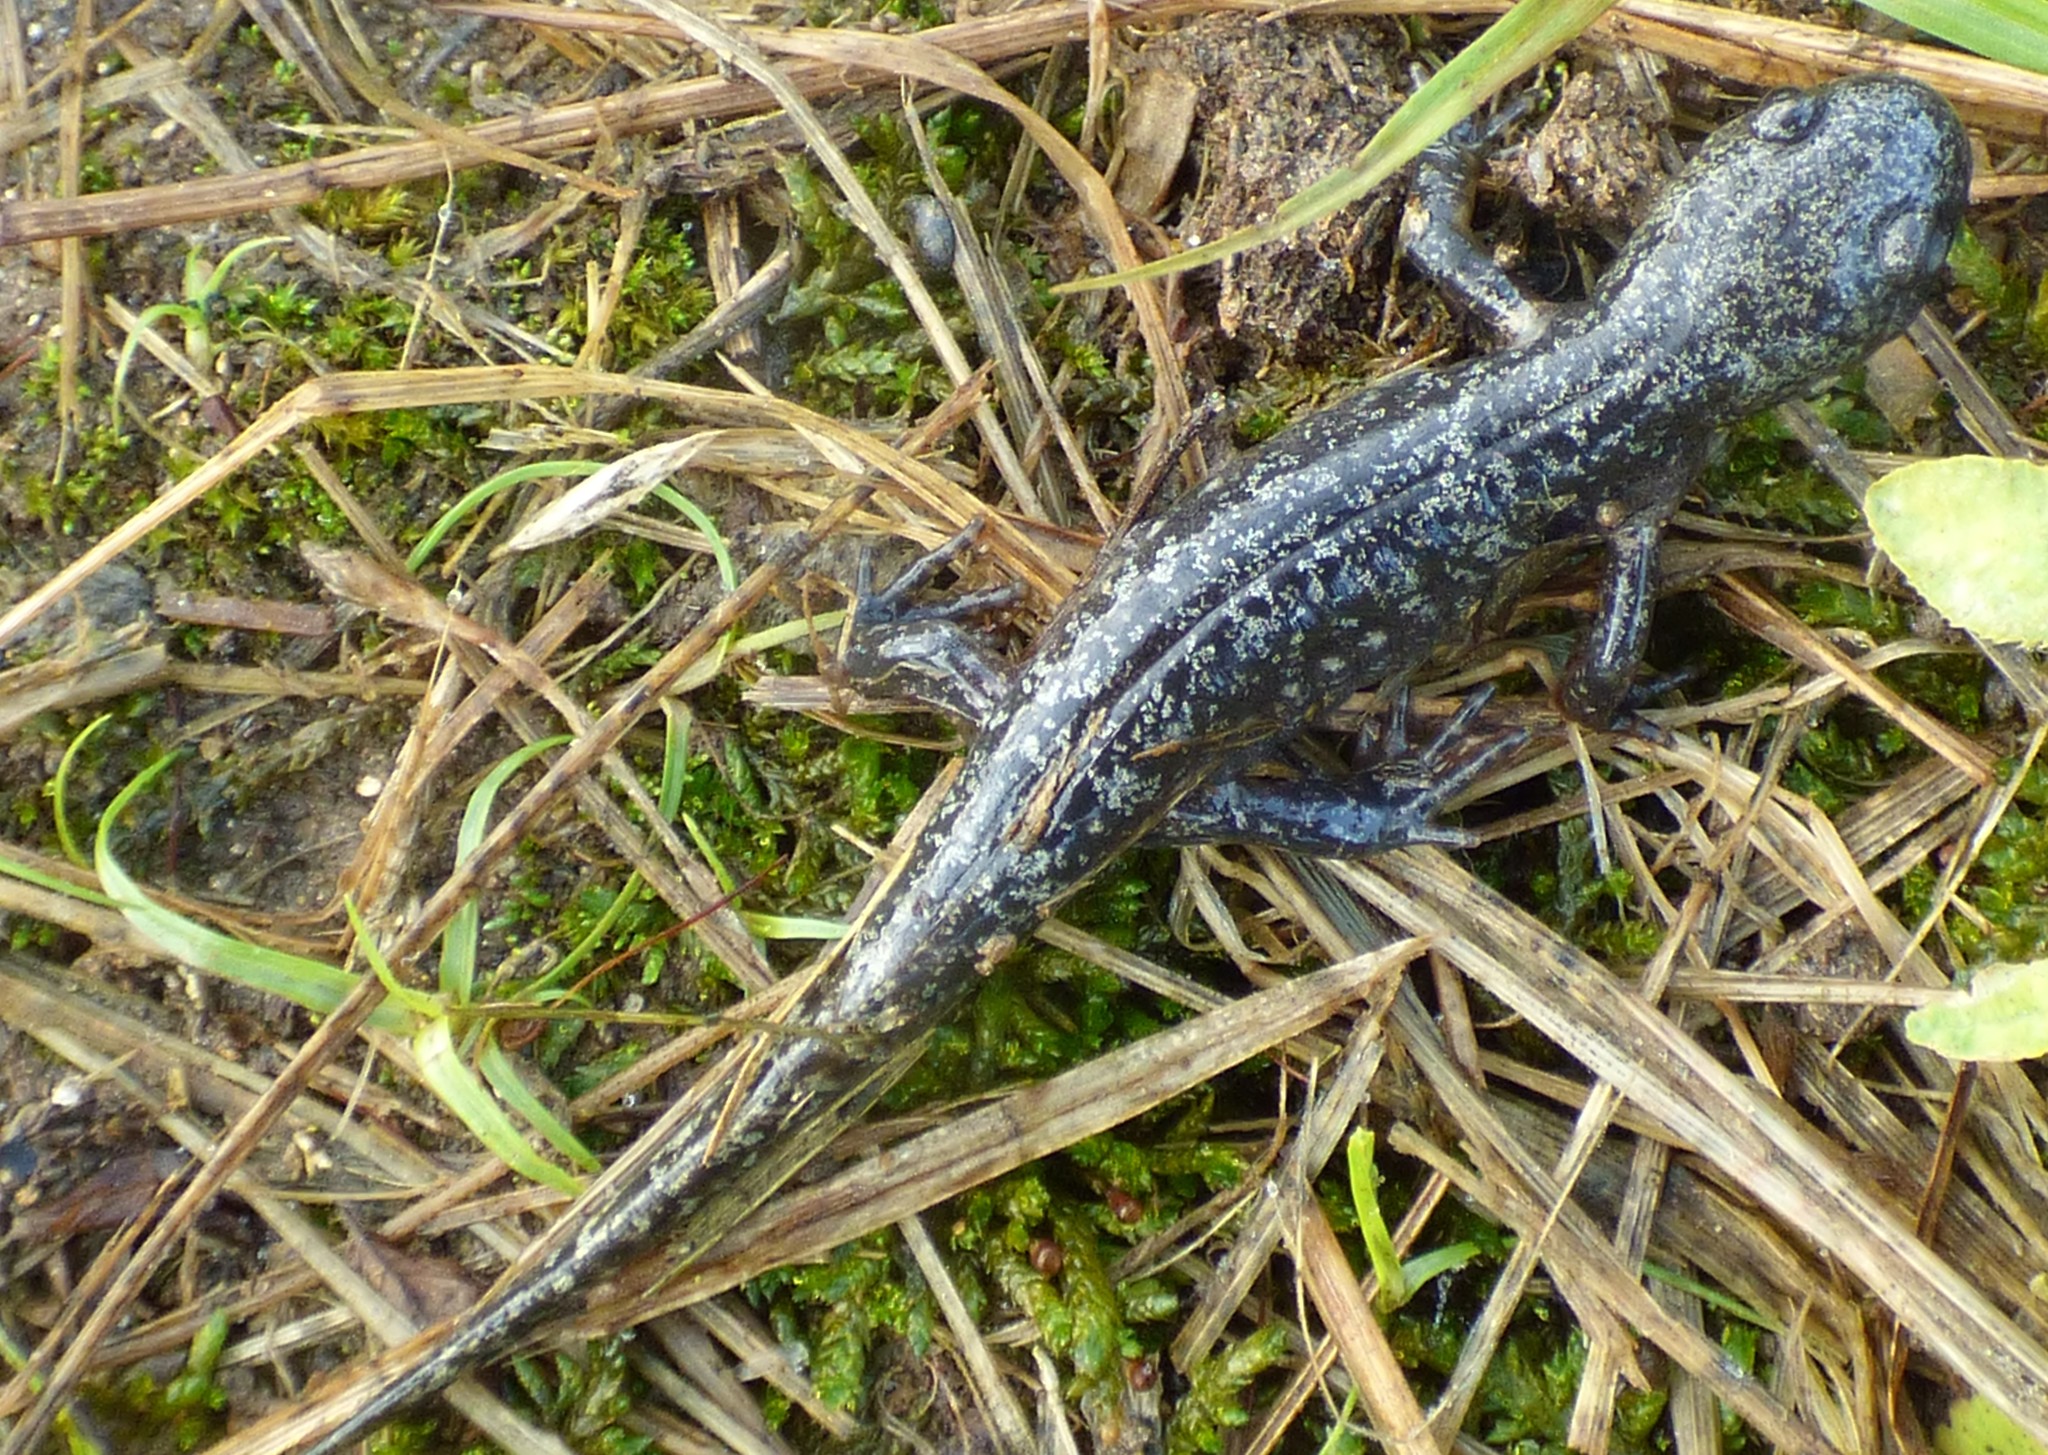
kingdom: Animalia
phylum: Chordata
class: Amphibia
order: Caudata
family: Ambystomatidae
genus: Ambystoma
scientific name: Ambystoma opacum
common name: Marbled salamander
